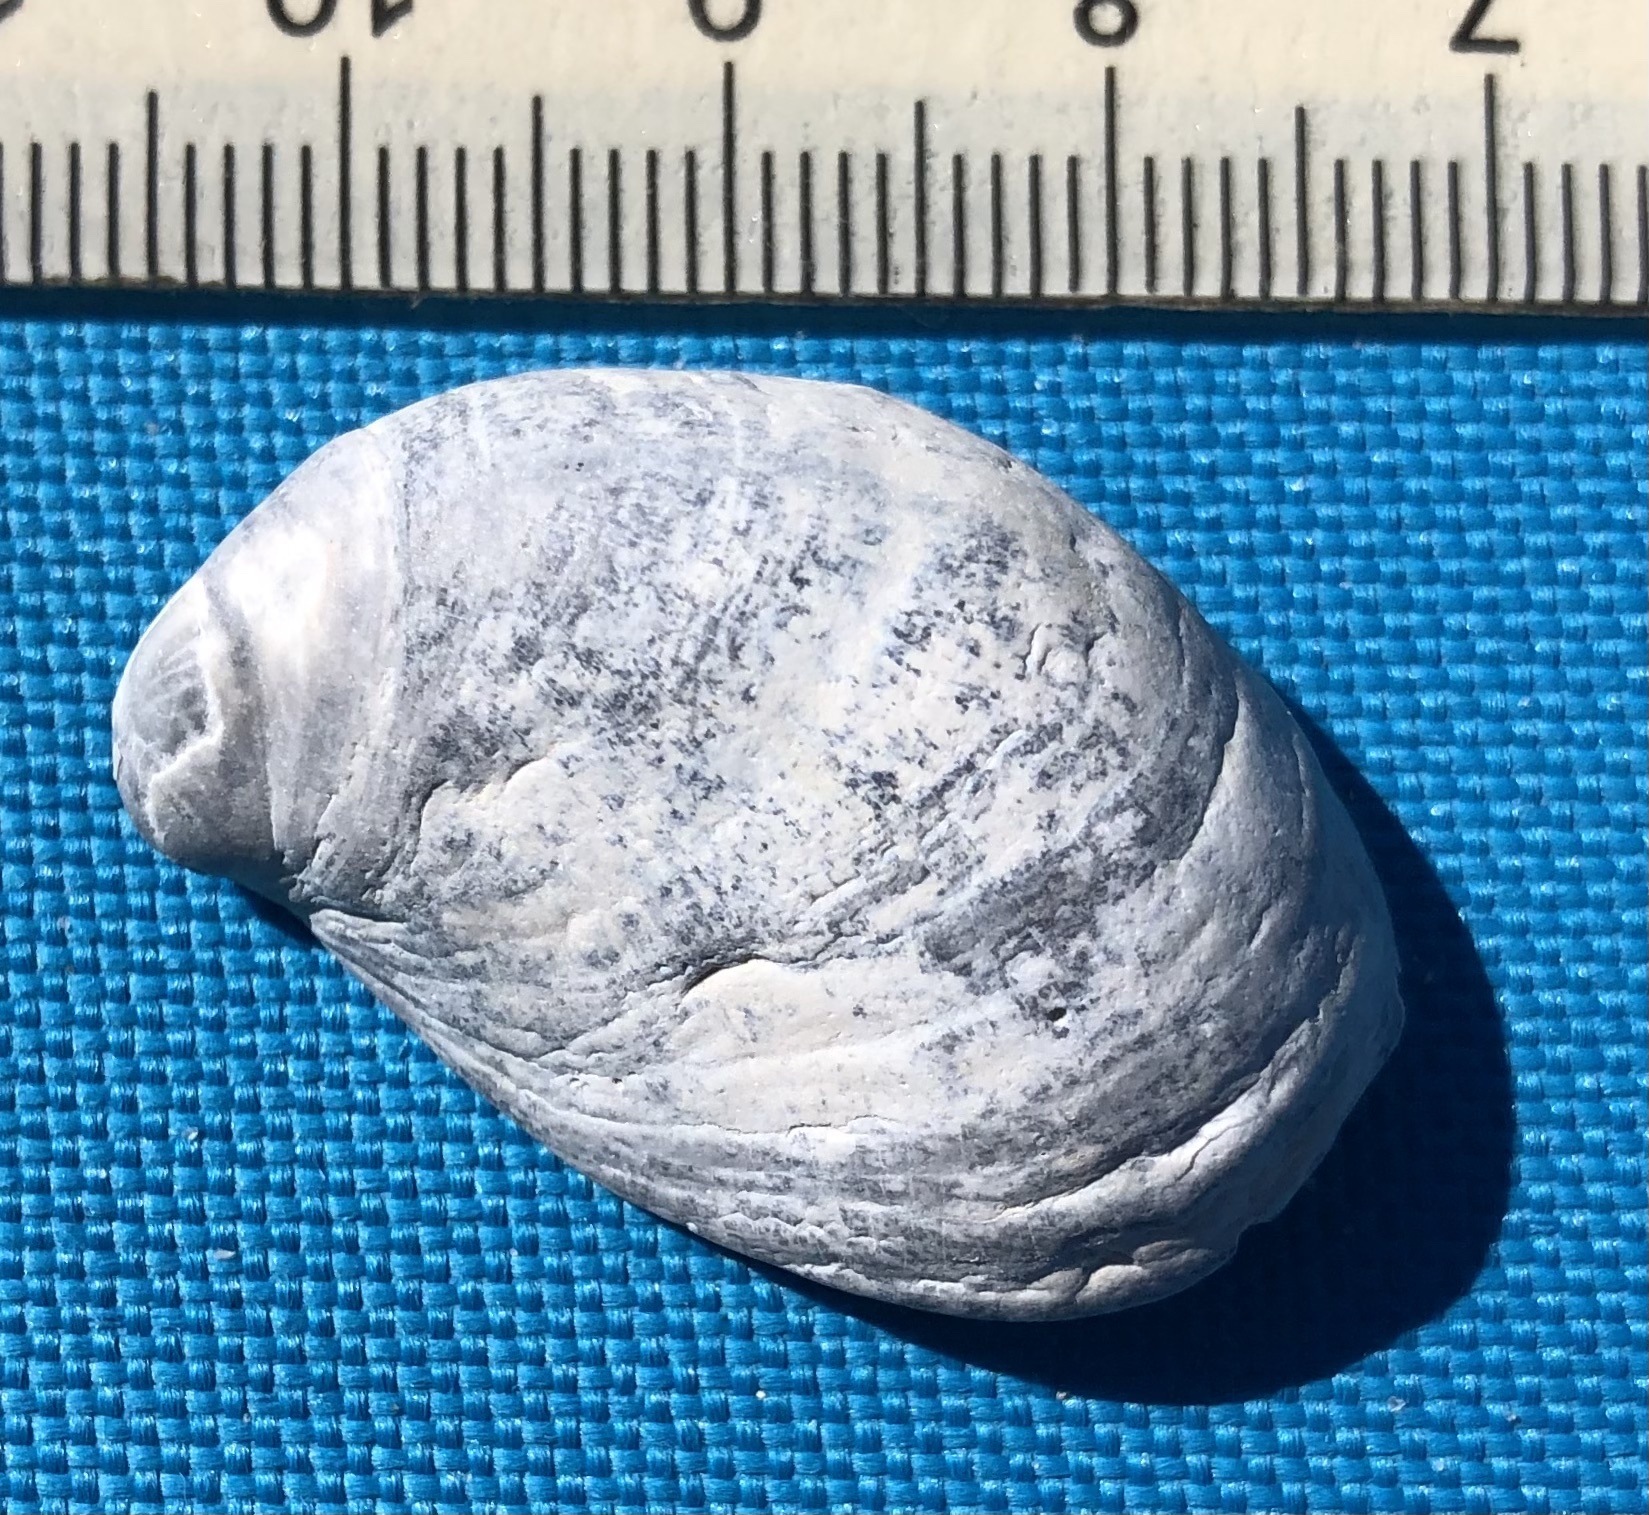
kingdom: Animalia
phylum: Mollusca
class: Gastropoda
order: Littorinimorpha
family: Calyptraeidae
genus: Crepidula
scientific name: Crepidula fornicata
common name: Slipper limpet
